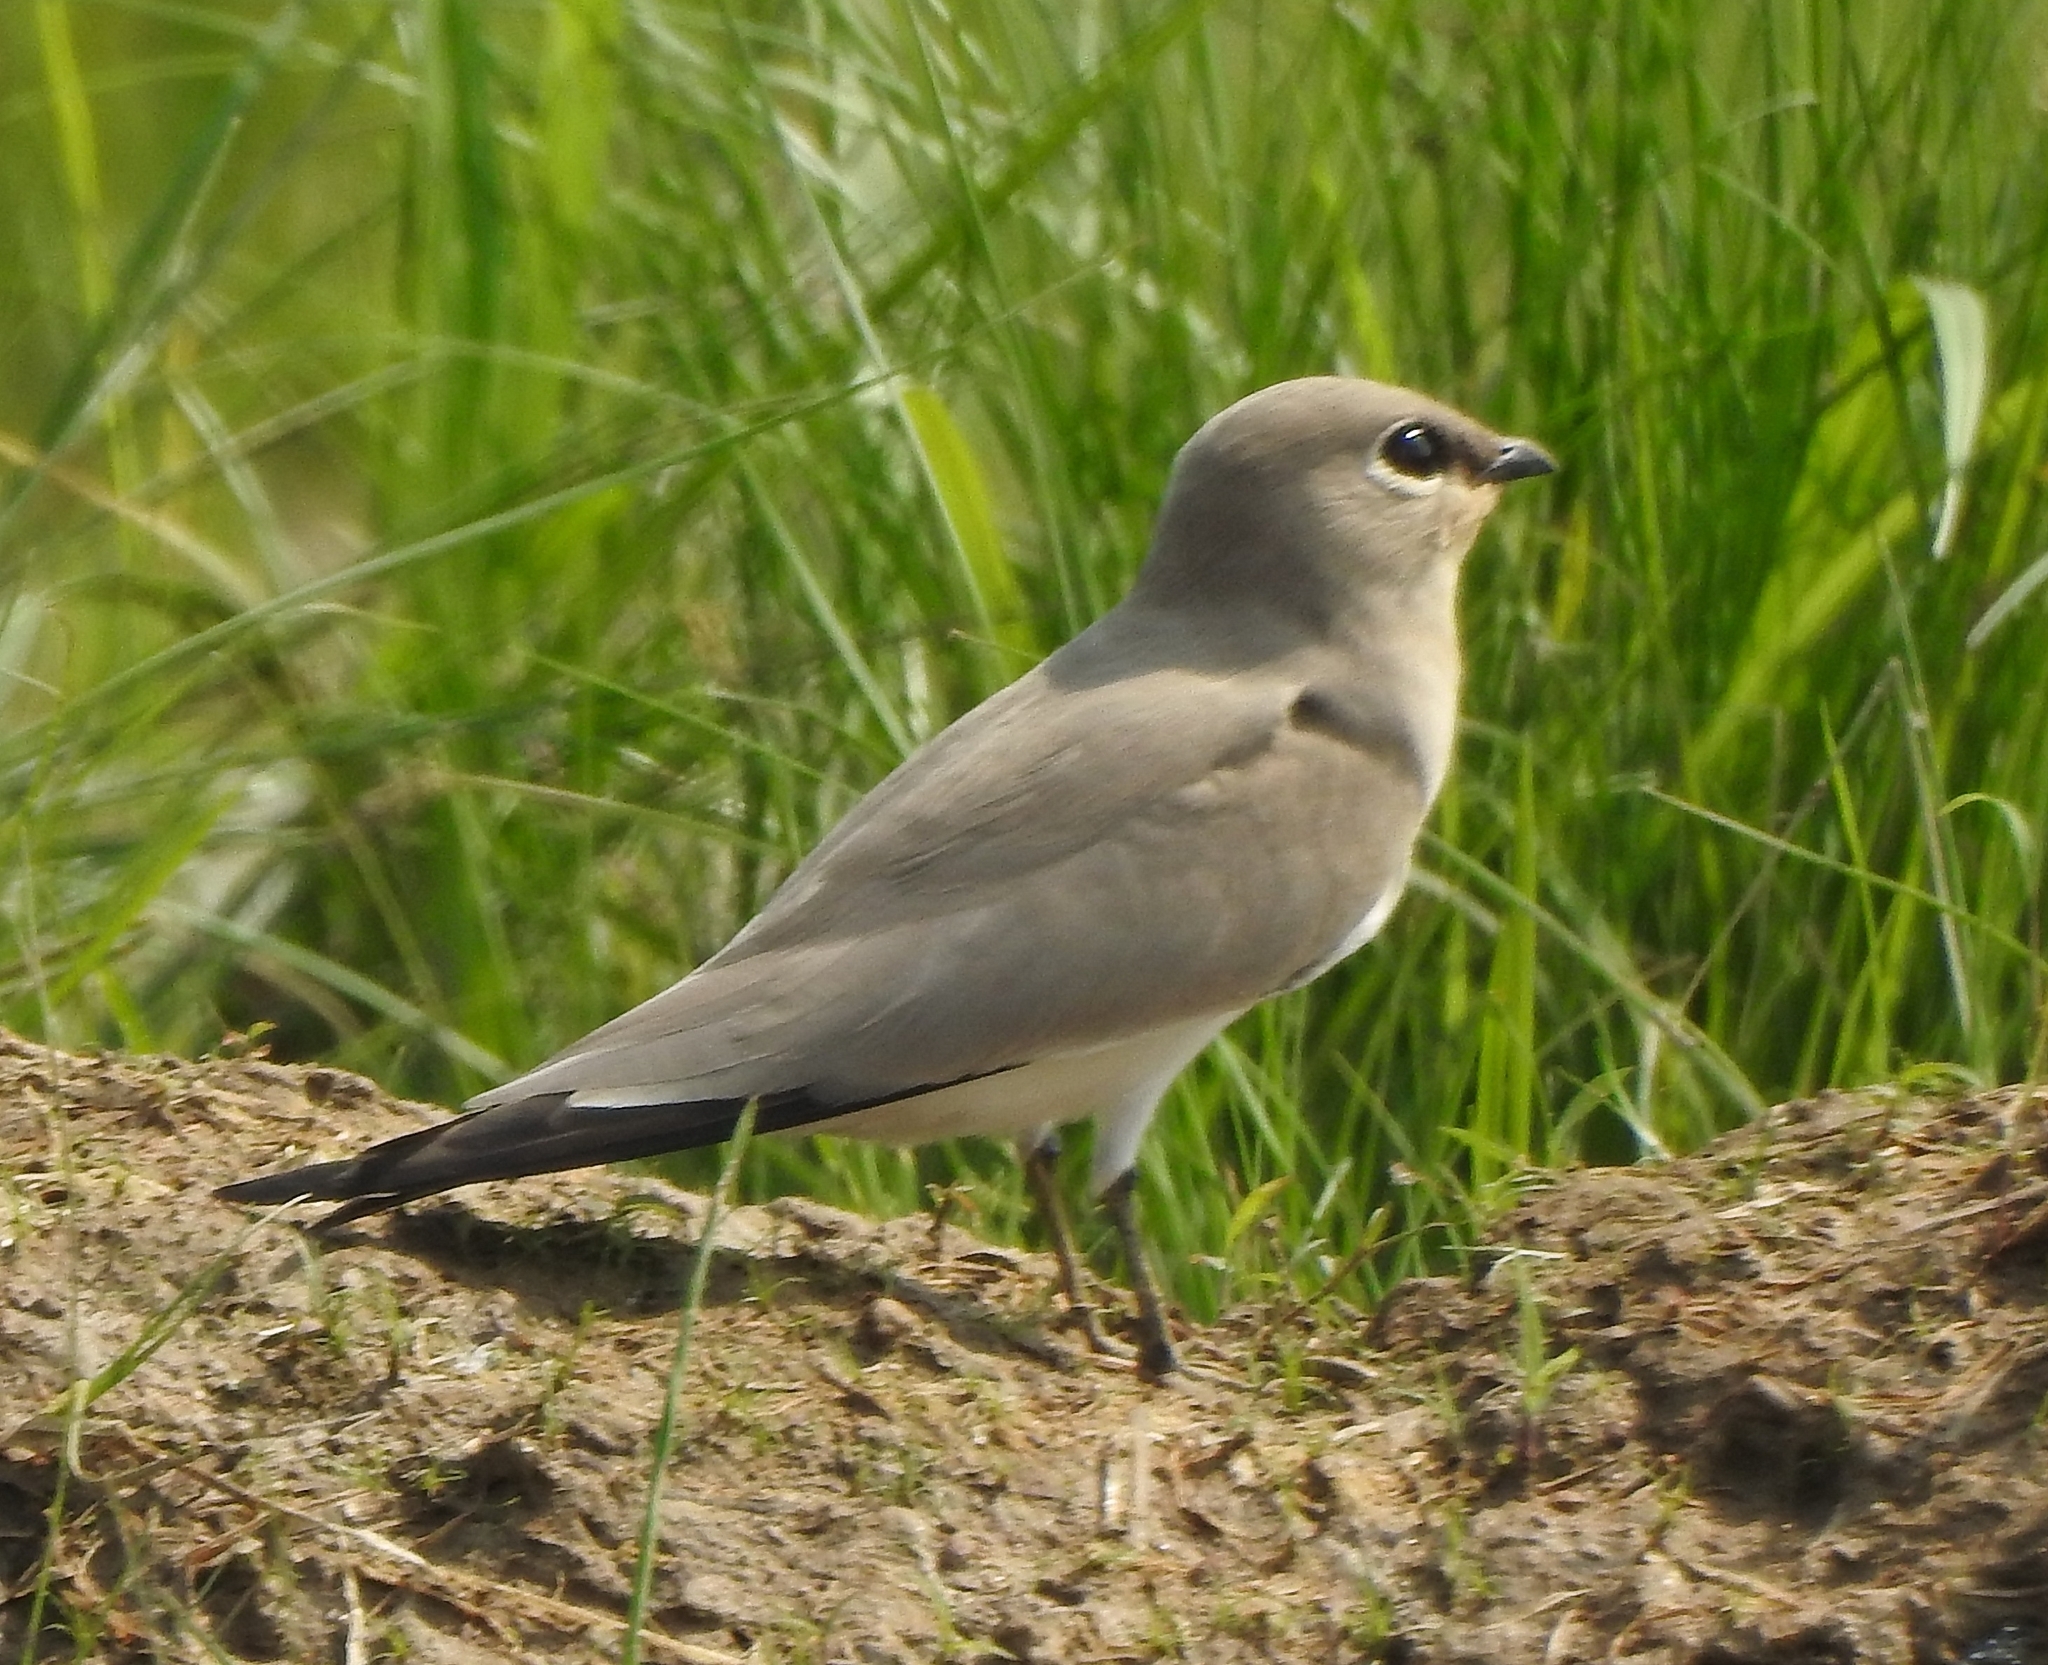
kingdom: Animalia
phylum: Chordata
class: Aves
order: Charadriiformes
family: Glareolidae
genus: Glareola
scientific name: Glareola lactea
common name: Small pratincole
